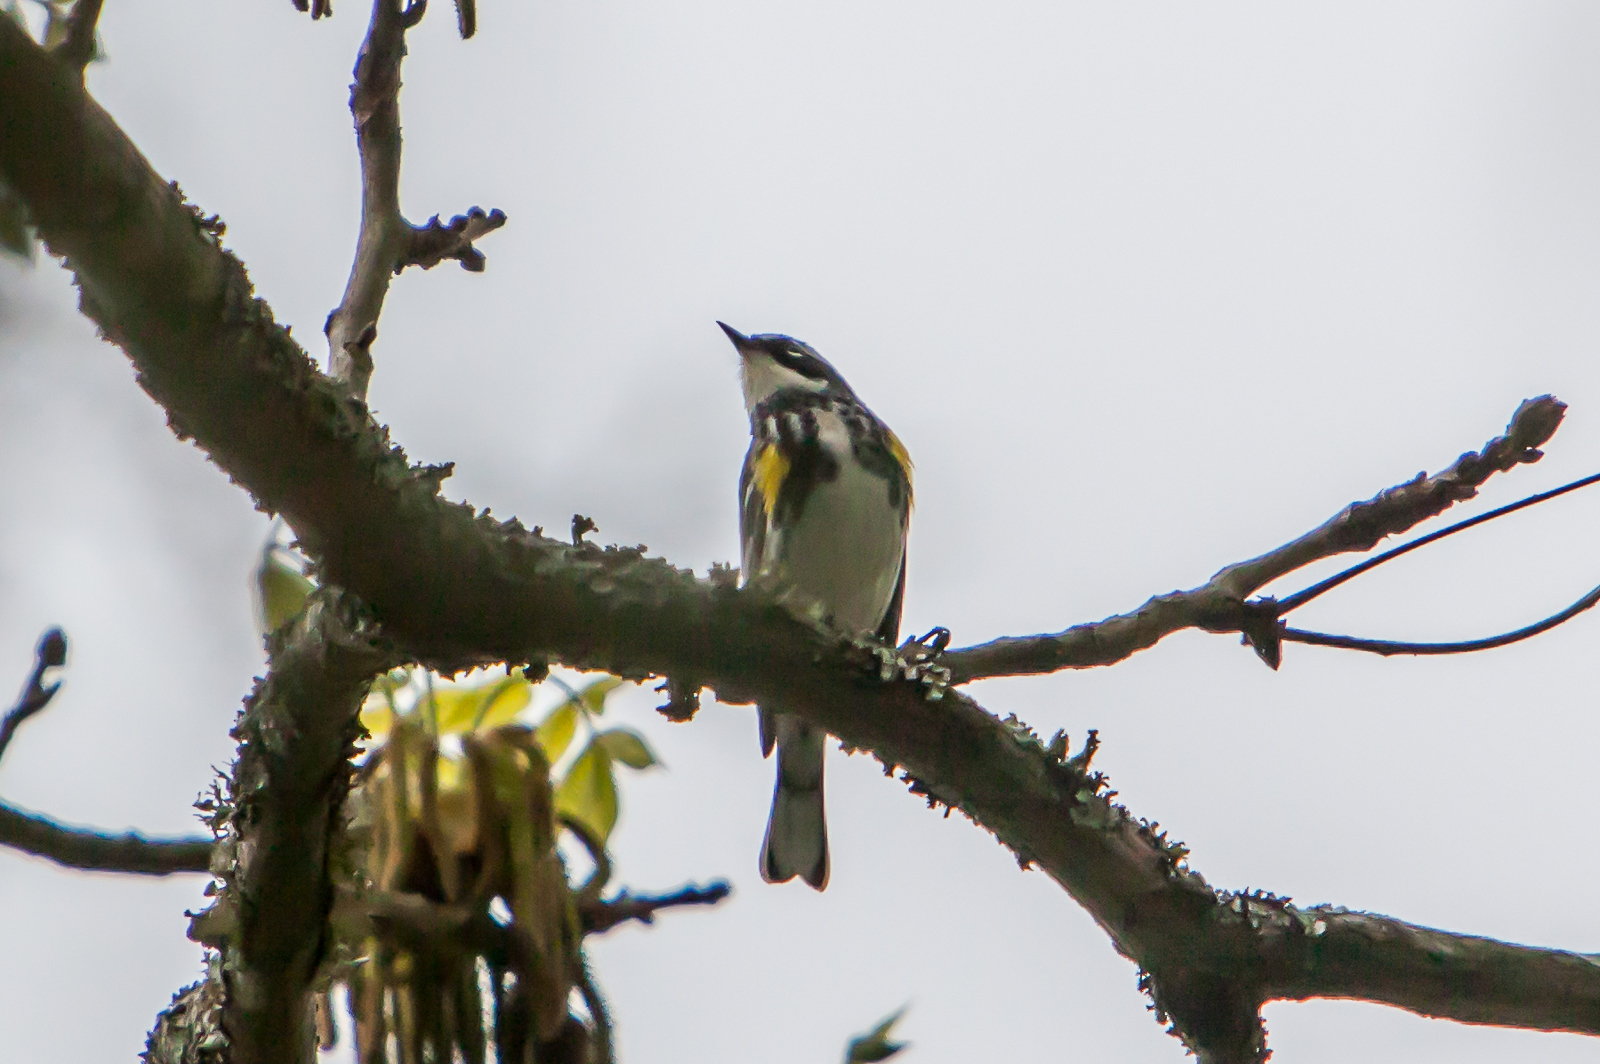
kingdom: Animalia
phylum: Chordata
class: Aves
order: Passeriformes
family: Parulidae
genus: Setophaga
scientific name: Setophaga coronata
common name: Myrtle warbler
